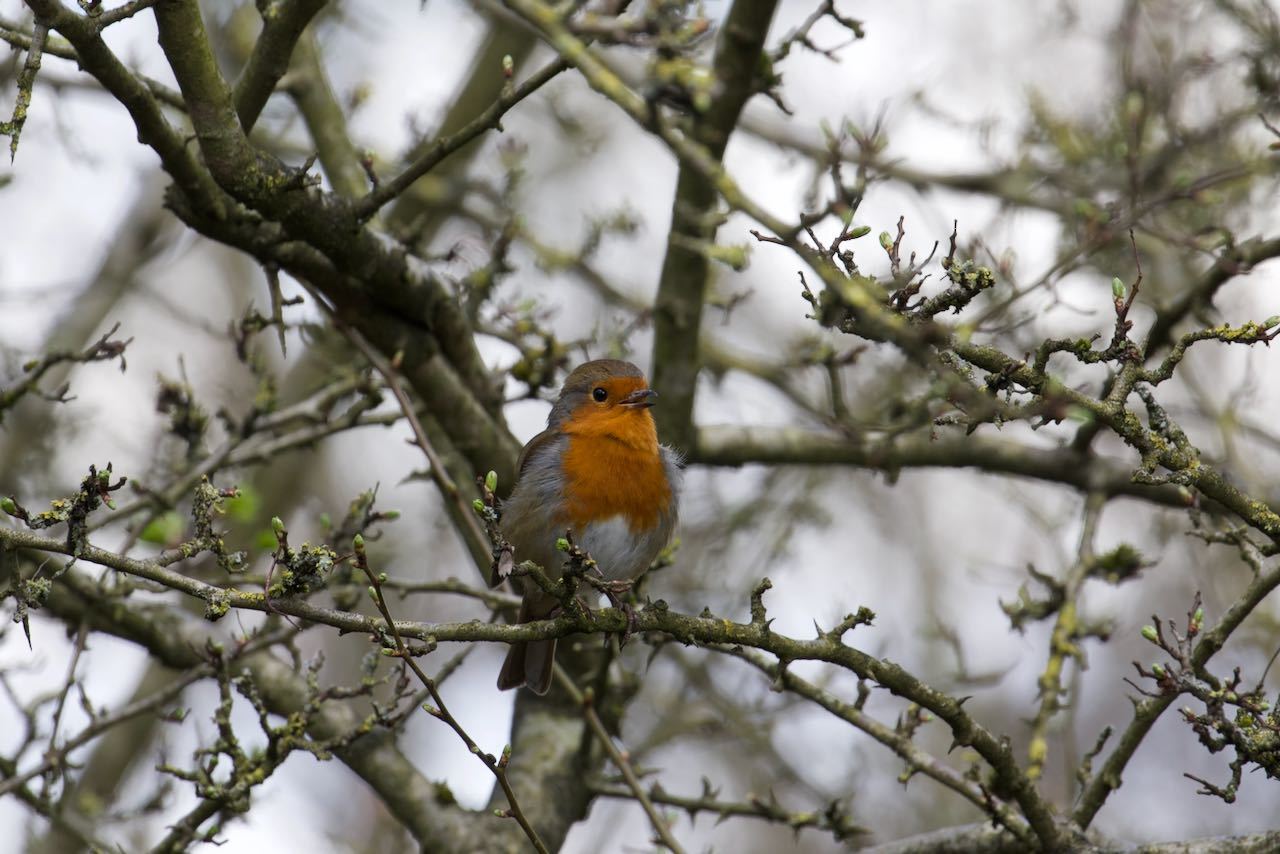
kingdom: Animalia
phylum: Chordata
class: Aves
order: Passeriformes
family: Muscicapidae
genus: Erithacus
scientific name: Erithacus rubecula
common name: European robin
